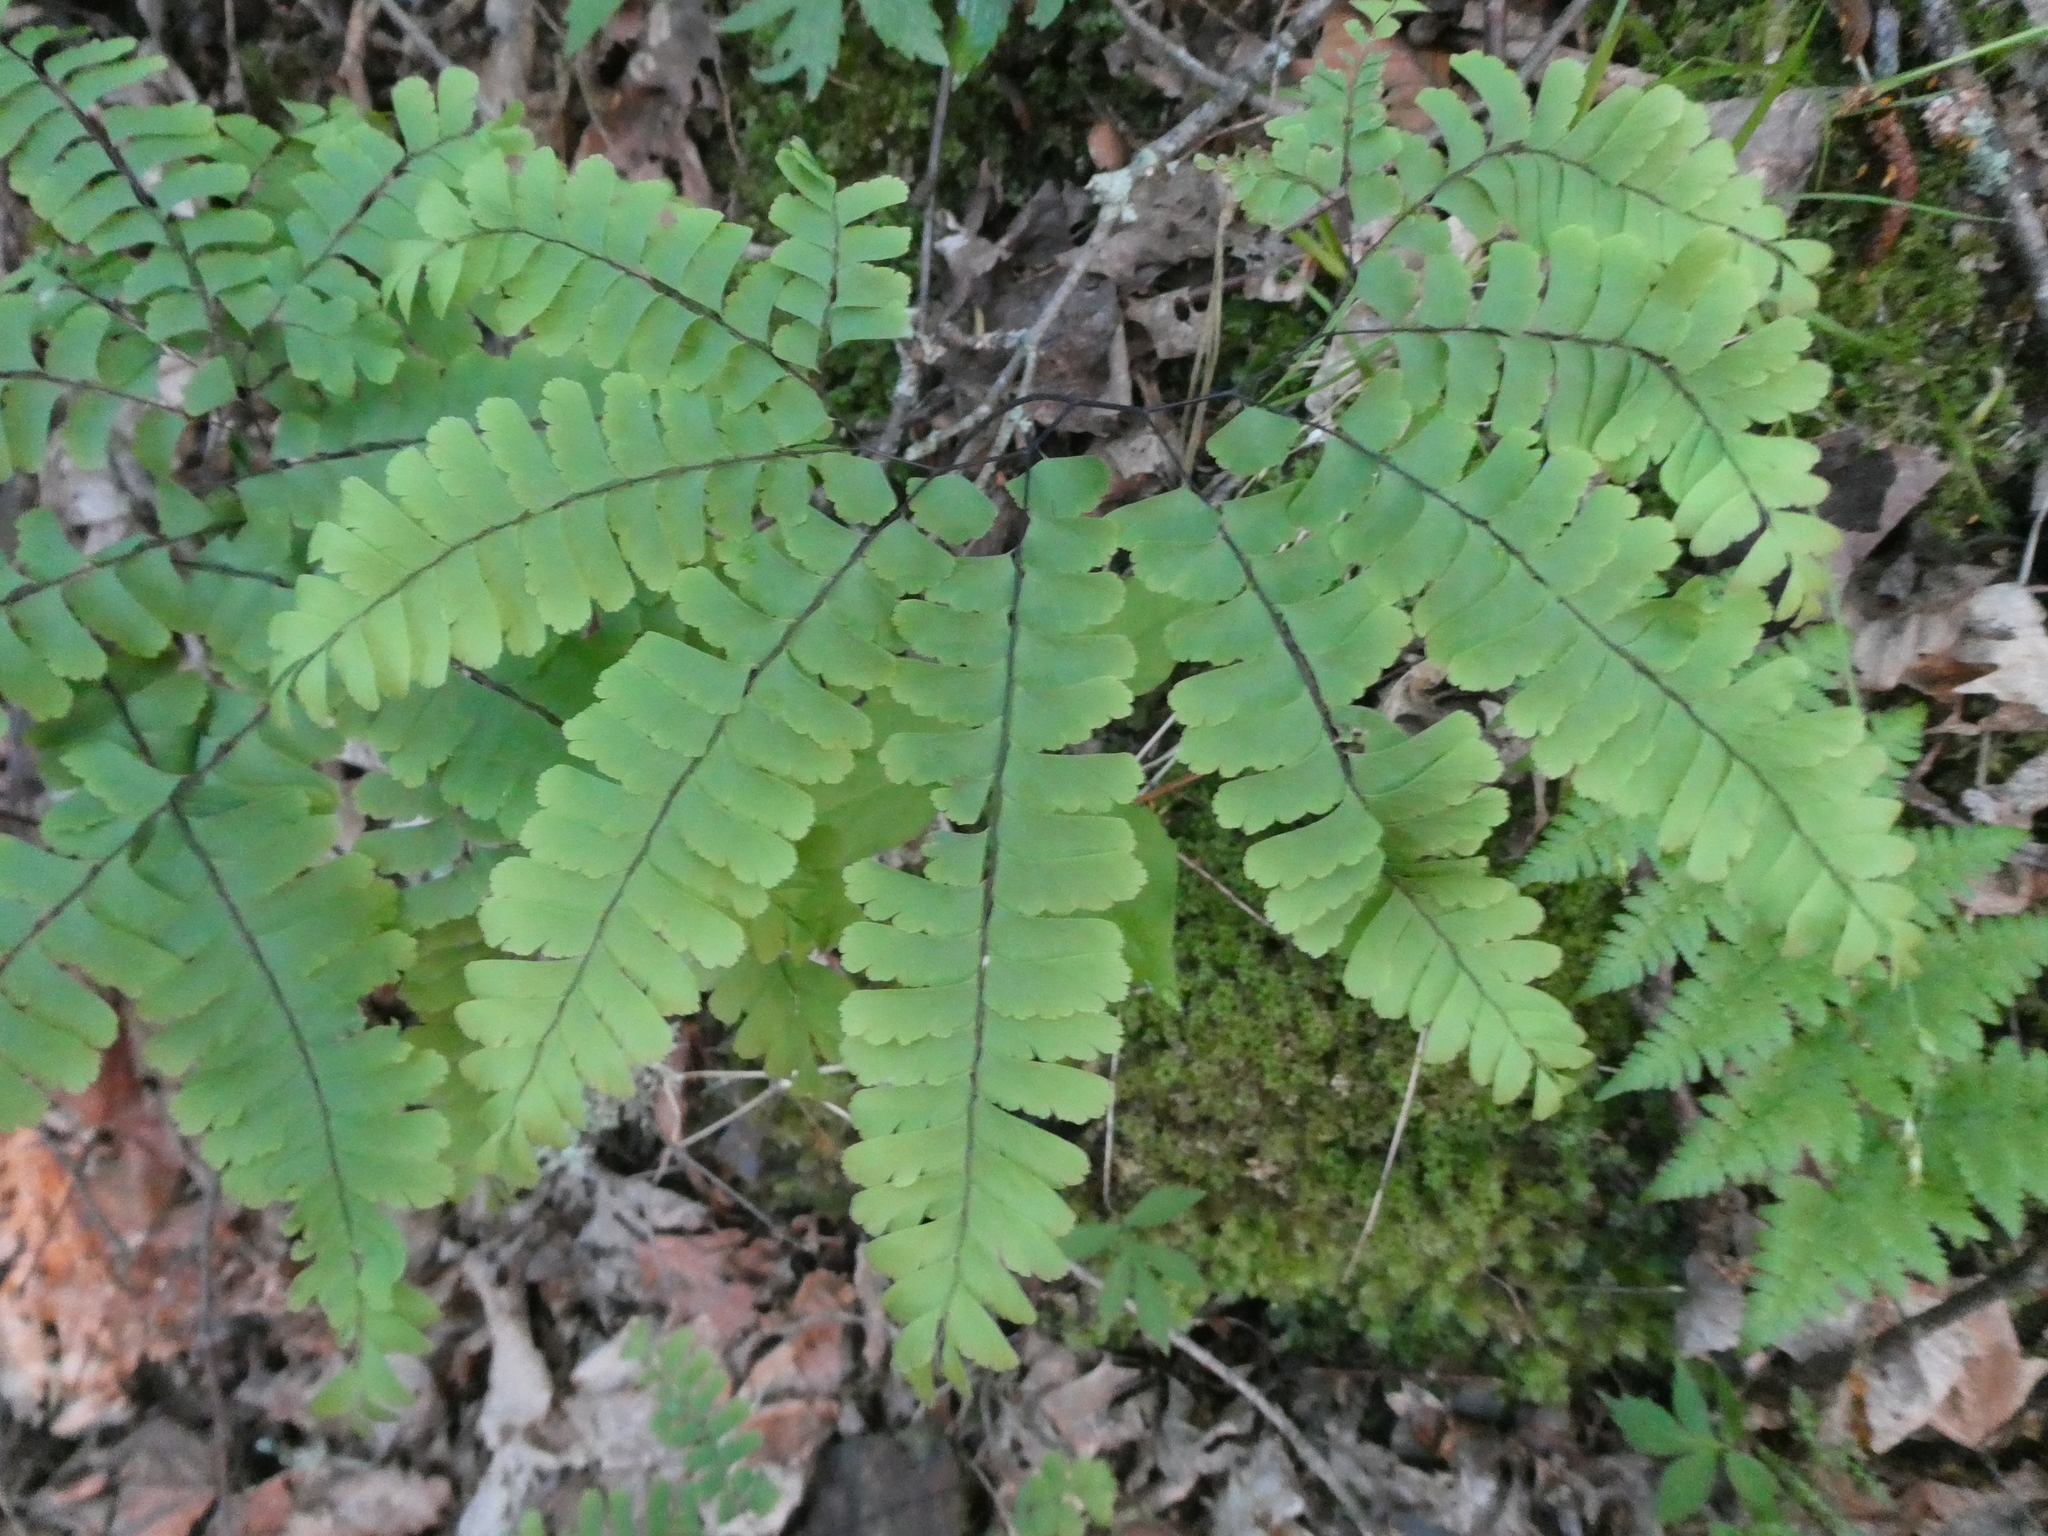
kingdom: Plantae
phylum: Tracheophyta
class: Polypodiopsida
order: Polypodiales
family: Pteridaceae
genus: Adiantum
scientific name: Adiantum pedatum
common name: Five-finger fern
